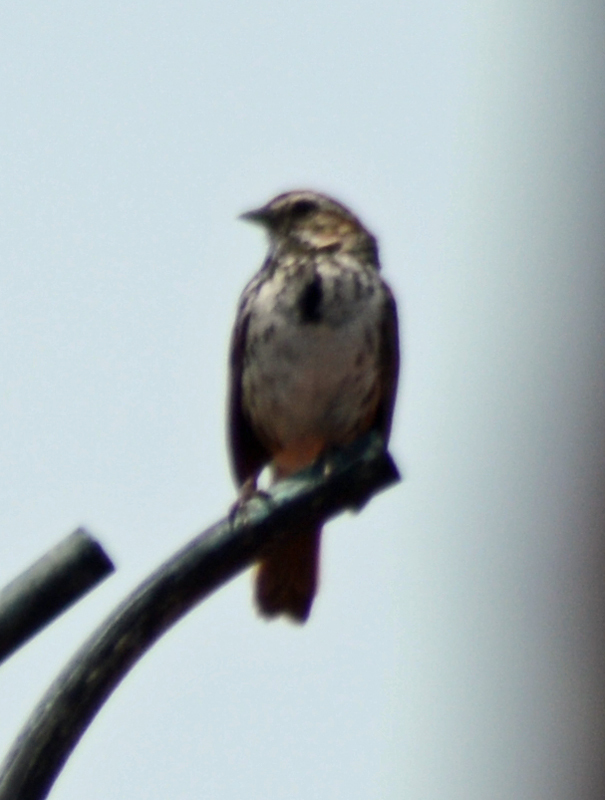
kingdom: Animalia
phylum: Chordata
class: Aves
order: Passeriformes
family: Passerellidae
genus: Melospiza
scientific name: Melospiza melodia
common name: Song sparrow
